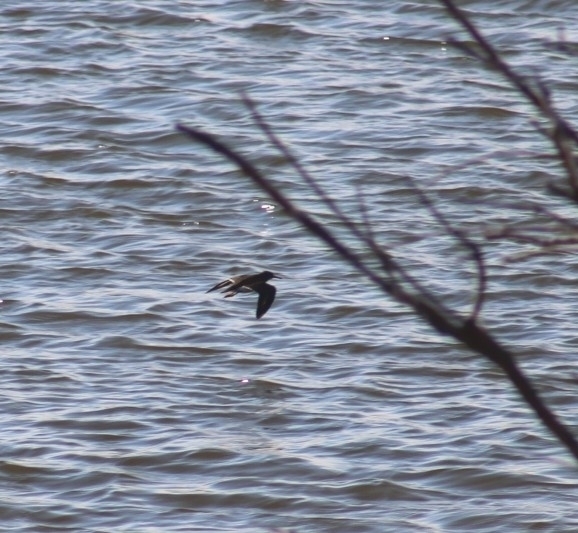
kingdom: Animalia
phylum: Chordata
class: Aves
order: Charadriiformes
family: Scolopacidae
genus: Actitis
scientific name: Actitis macularius
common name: Spotted sandpiper
